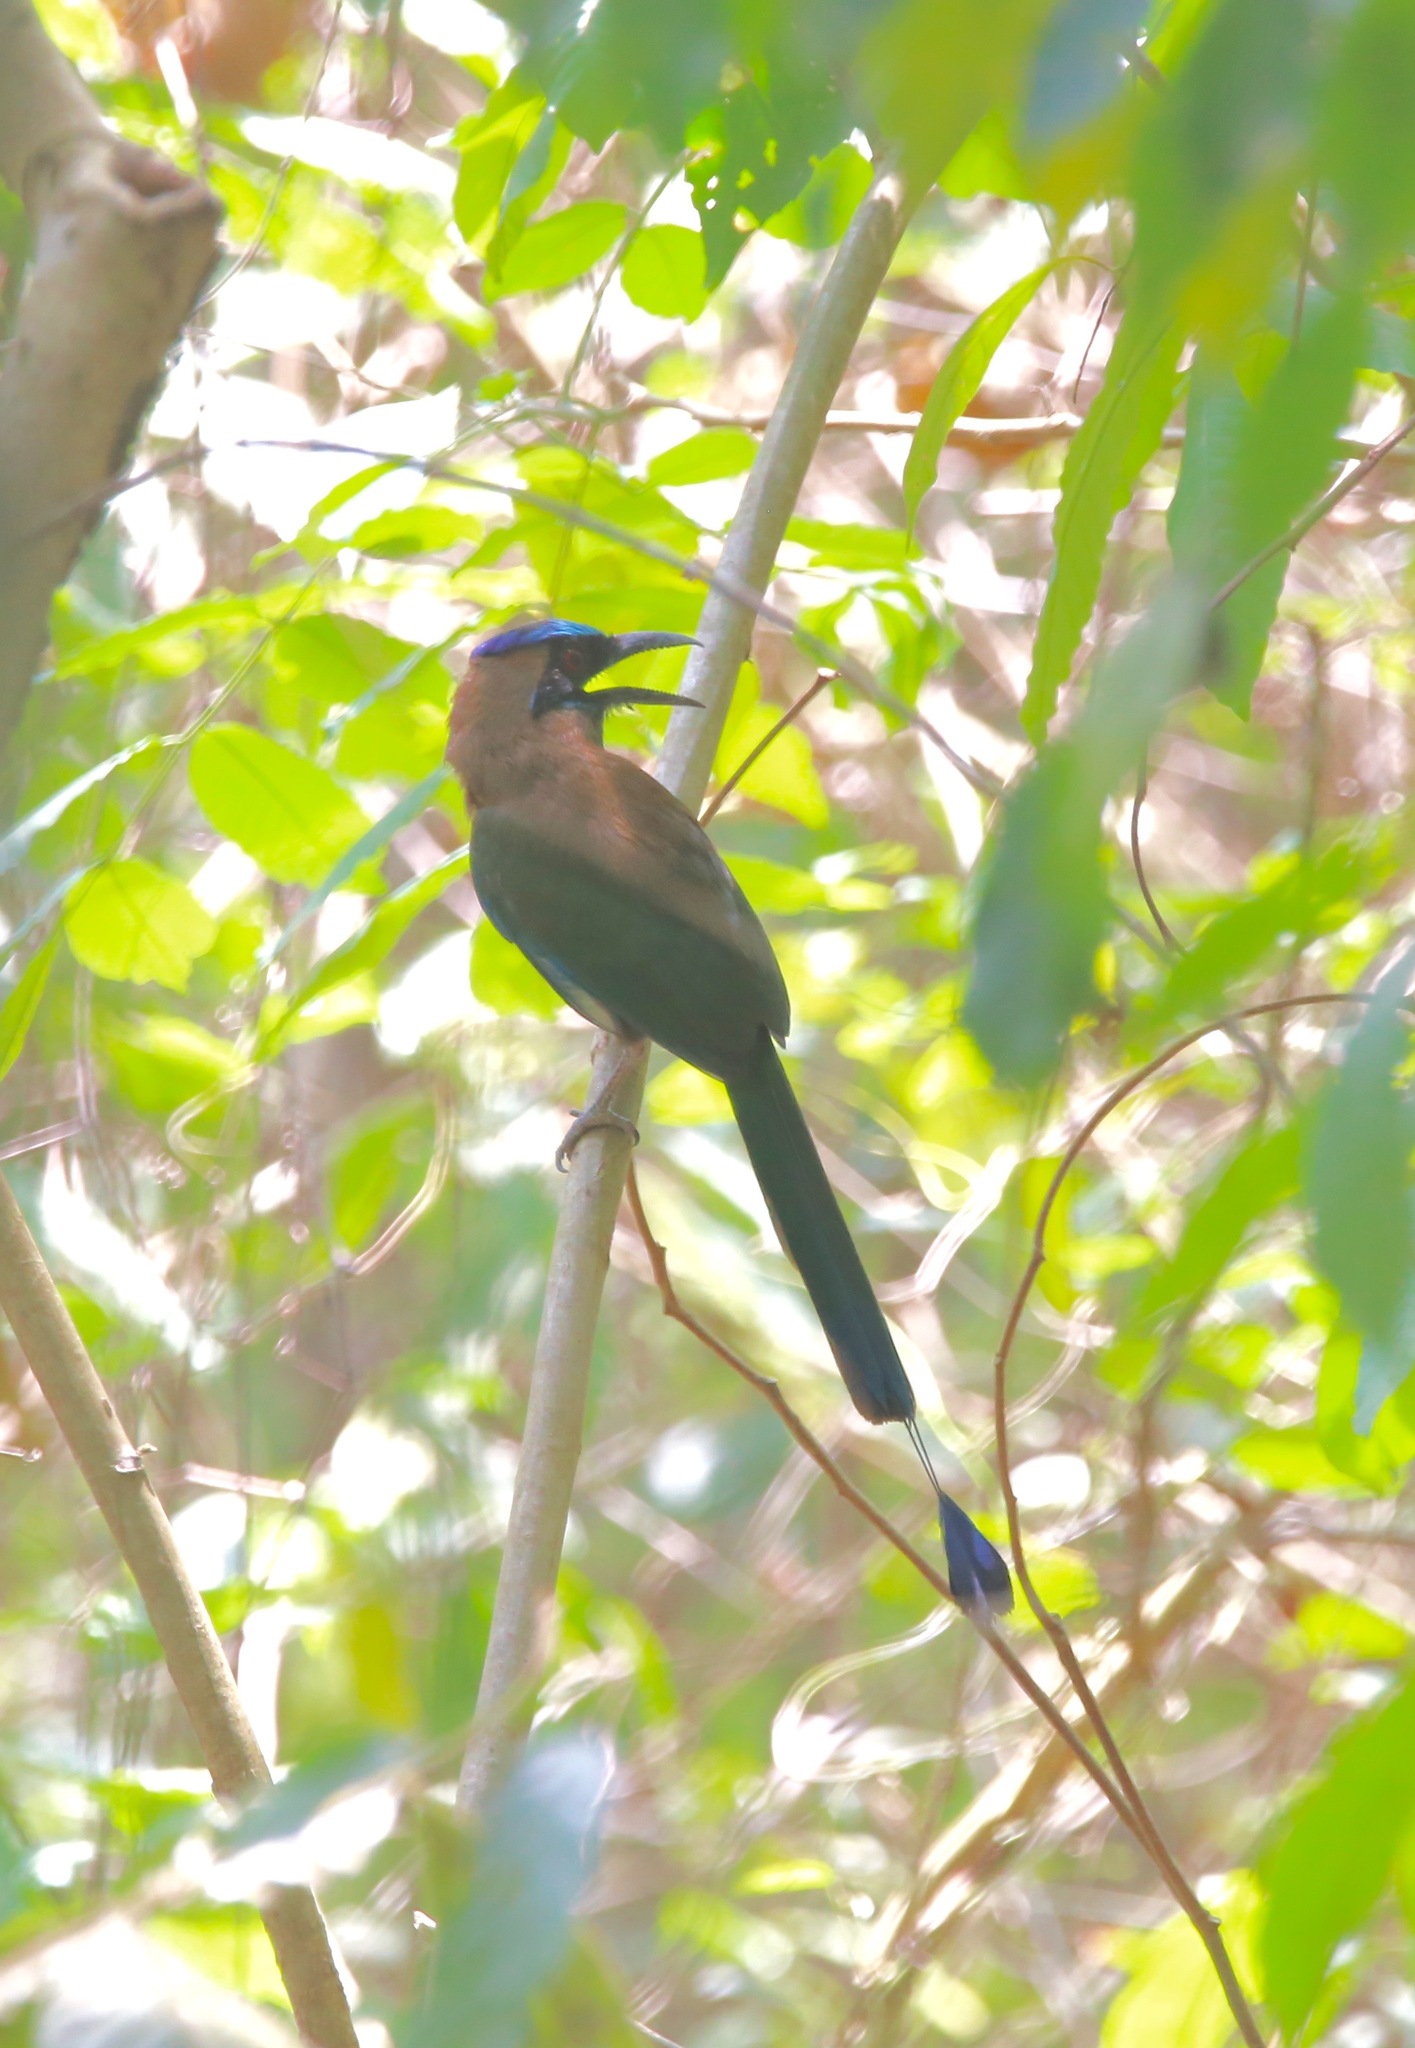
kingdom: Animalia
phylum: Chordata
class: Aves
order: Coraciiformes
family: Momotidae
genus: Momotus
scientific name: Momotus subrufescens
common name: Whooping motmot
